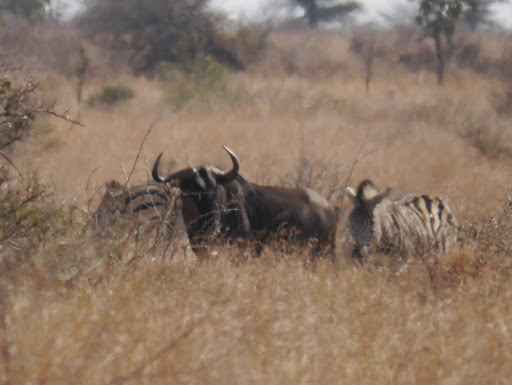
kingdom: Animalia
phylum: Chordata
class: Mammalia
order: Artiodactyla
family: Bovidae
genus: Connochaetes
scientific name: Connochaetes taurinus
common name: Blue wildebeest
